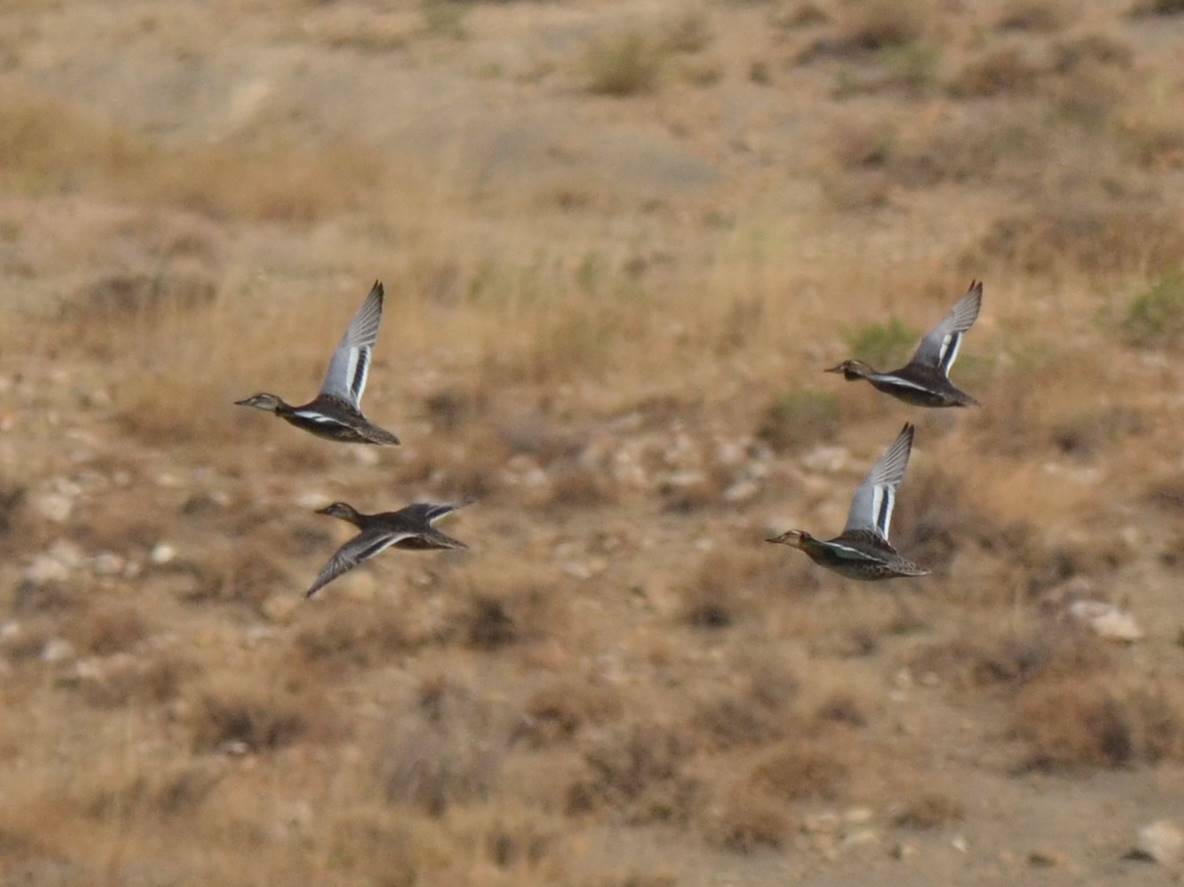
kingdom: Animalia
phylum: Chordata
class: Aves
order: Anseriformes
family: Anatidae
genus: Spatula
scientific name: Spatula querquedula
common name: Garganey
